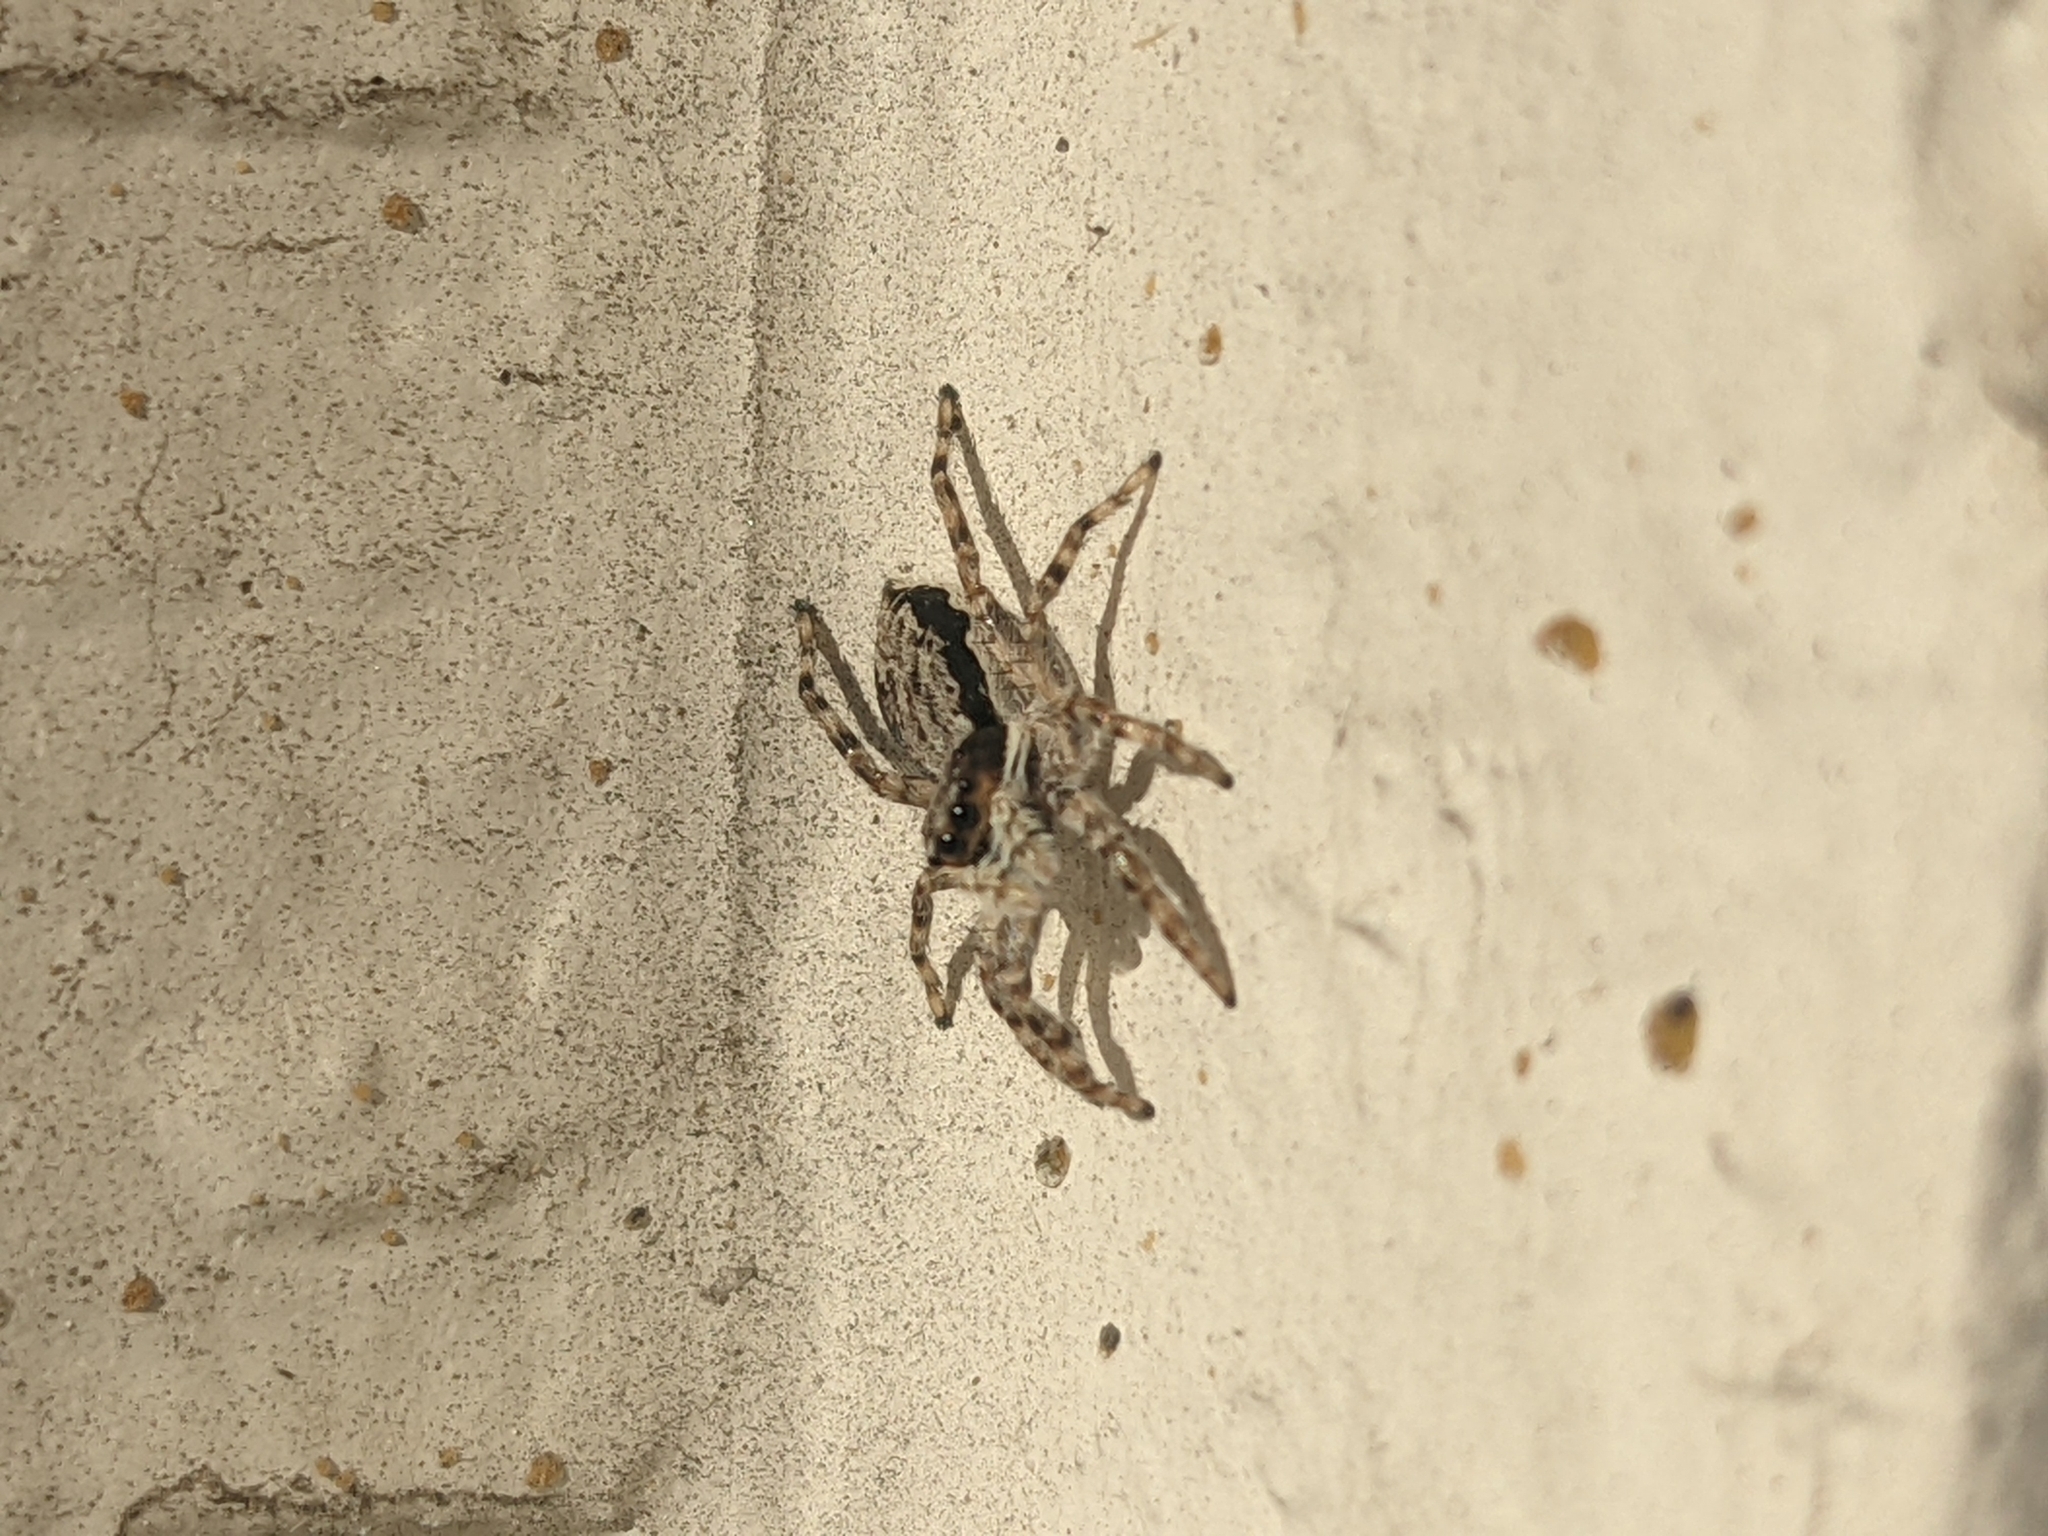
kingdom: Animalia
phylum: Arthropoda
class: Arachnida
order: Araneae
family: Salticidae
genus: Menemerus
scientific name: Menemerus bivittatus
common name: Gray wall jumper
